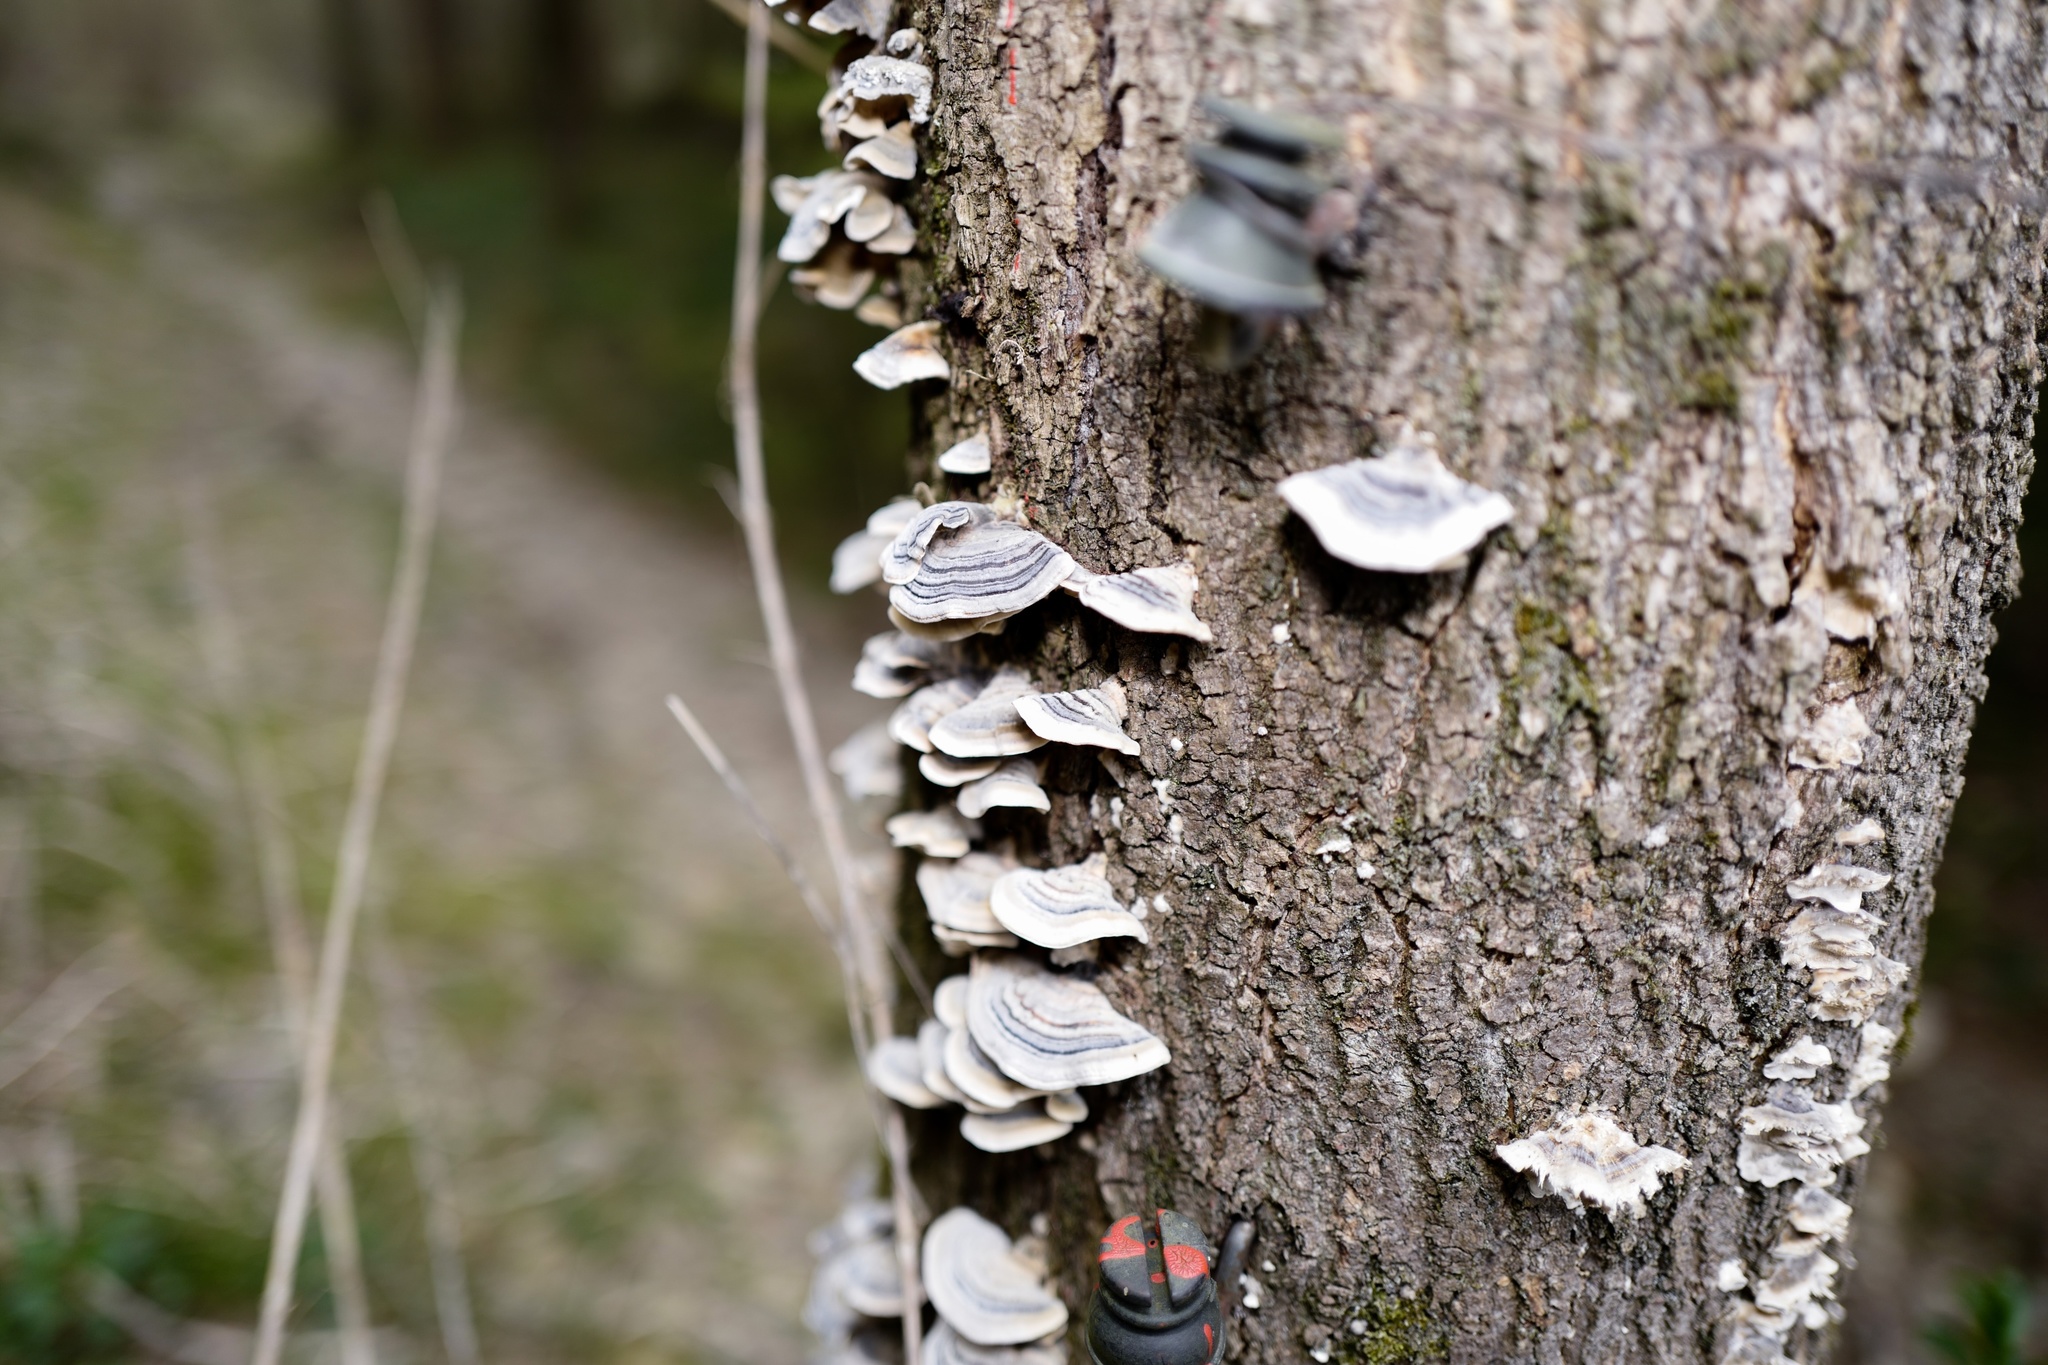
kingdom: Fungi
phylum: Basidiomycota
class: Agaricomycetes
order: Polyporales
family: Polyporaceae
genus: Trametes
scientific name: Trametes versicolor
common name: Turkeytail
